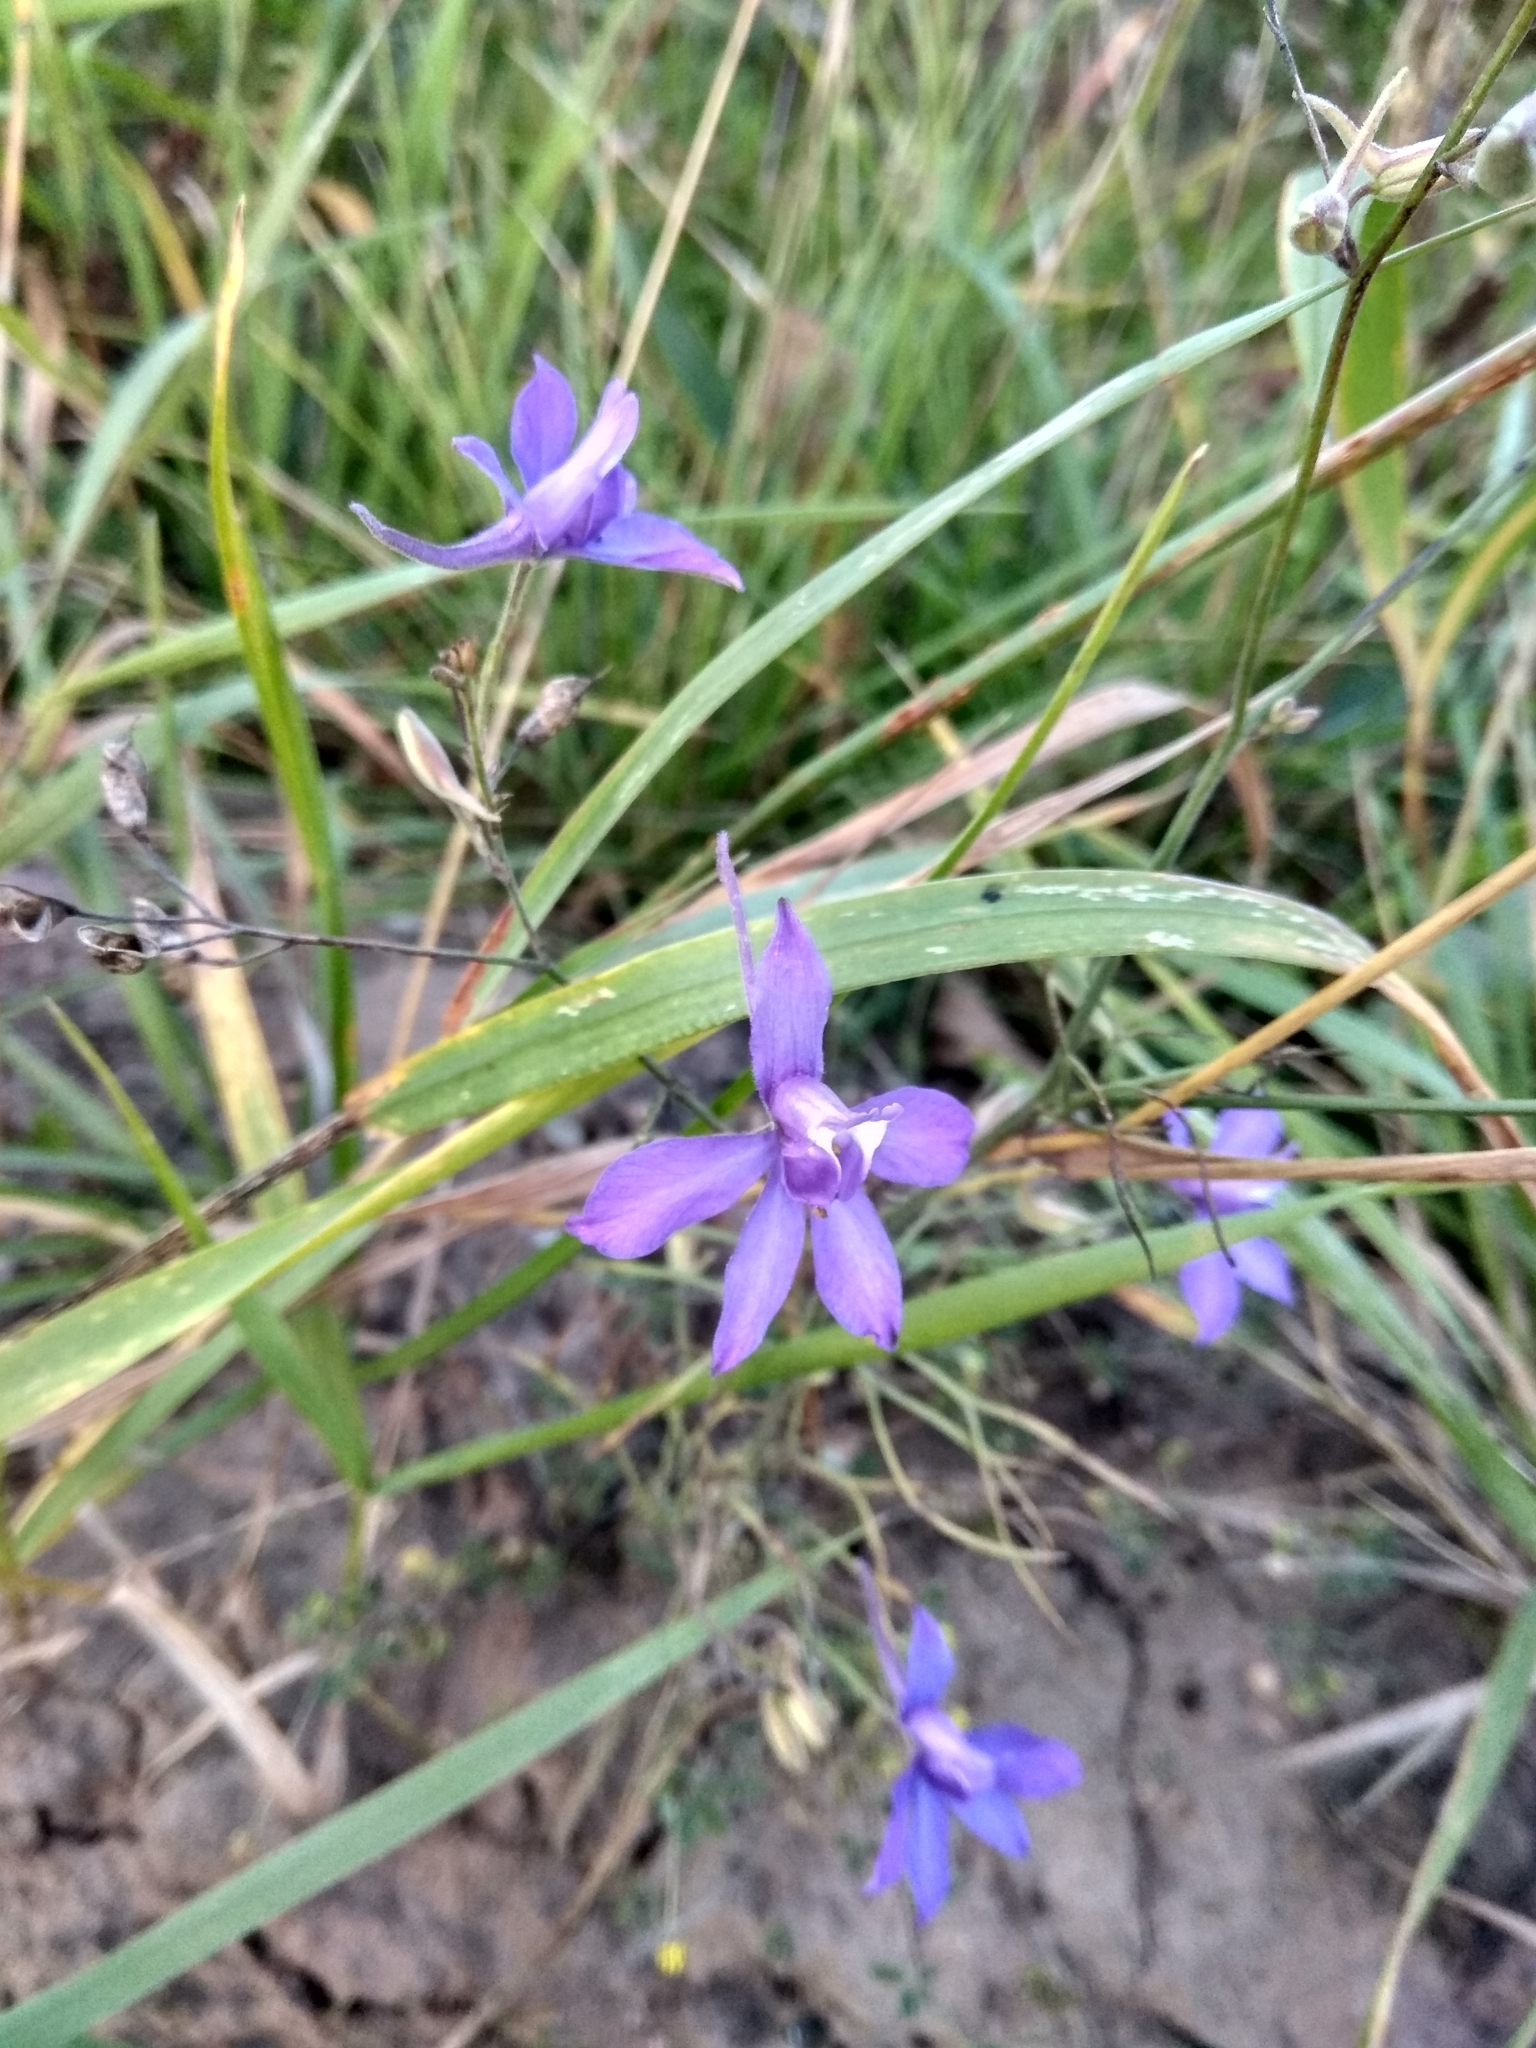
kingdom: Plantae
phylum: Tracheophyta
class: Magnoliopsida
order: Ranunculales
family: Ranunculaceae
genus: Delphinium
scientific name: Delphinium consolida
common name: Branching larkspur
